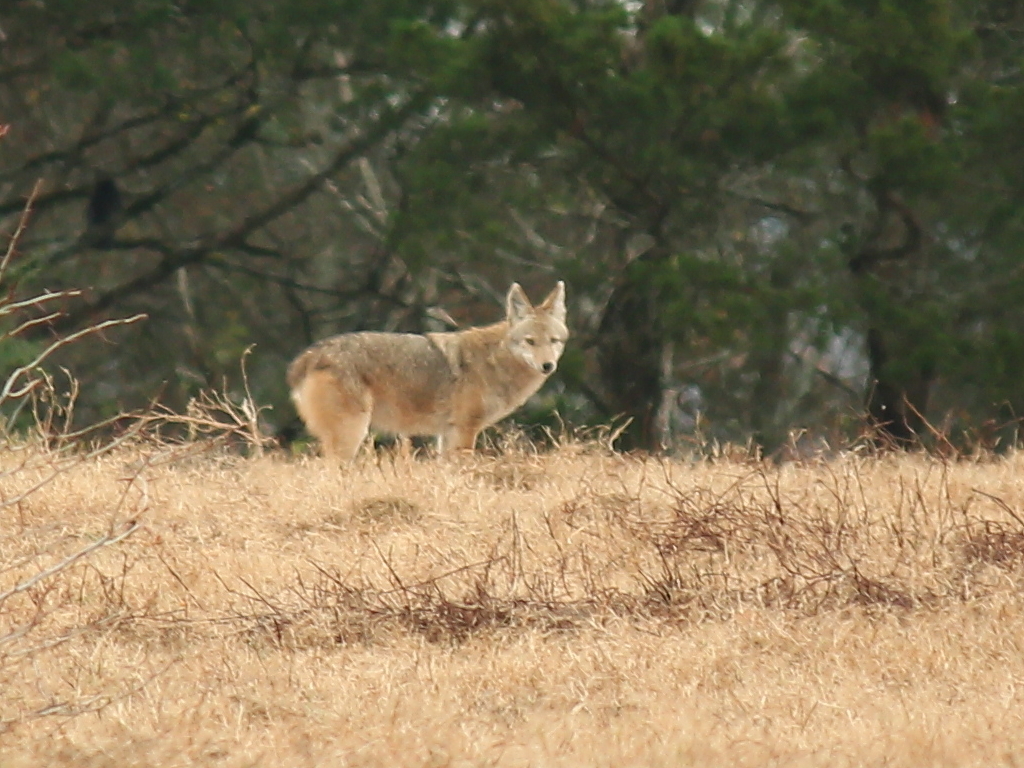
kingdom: Animalia
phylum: Chordata
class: Mammalia
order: Carnivora
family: Canidae
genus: Canis
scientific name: Canis latrans
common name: Coyote
